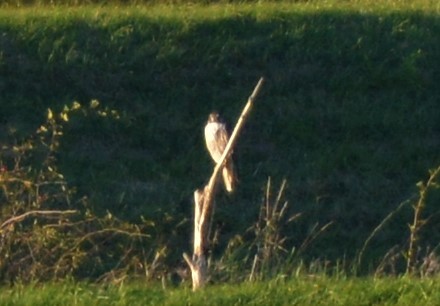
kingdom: Animalia
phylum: Chordata
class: Aves
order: Falconiformes
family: Falconidae
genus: Falco
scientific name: Falco peregrinus
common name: Peregrine falcon
